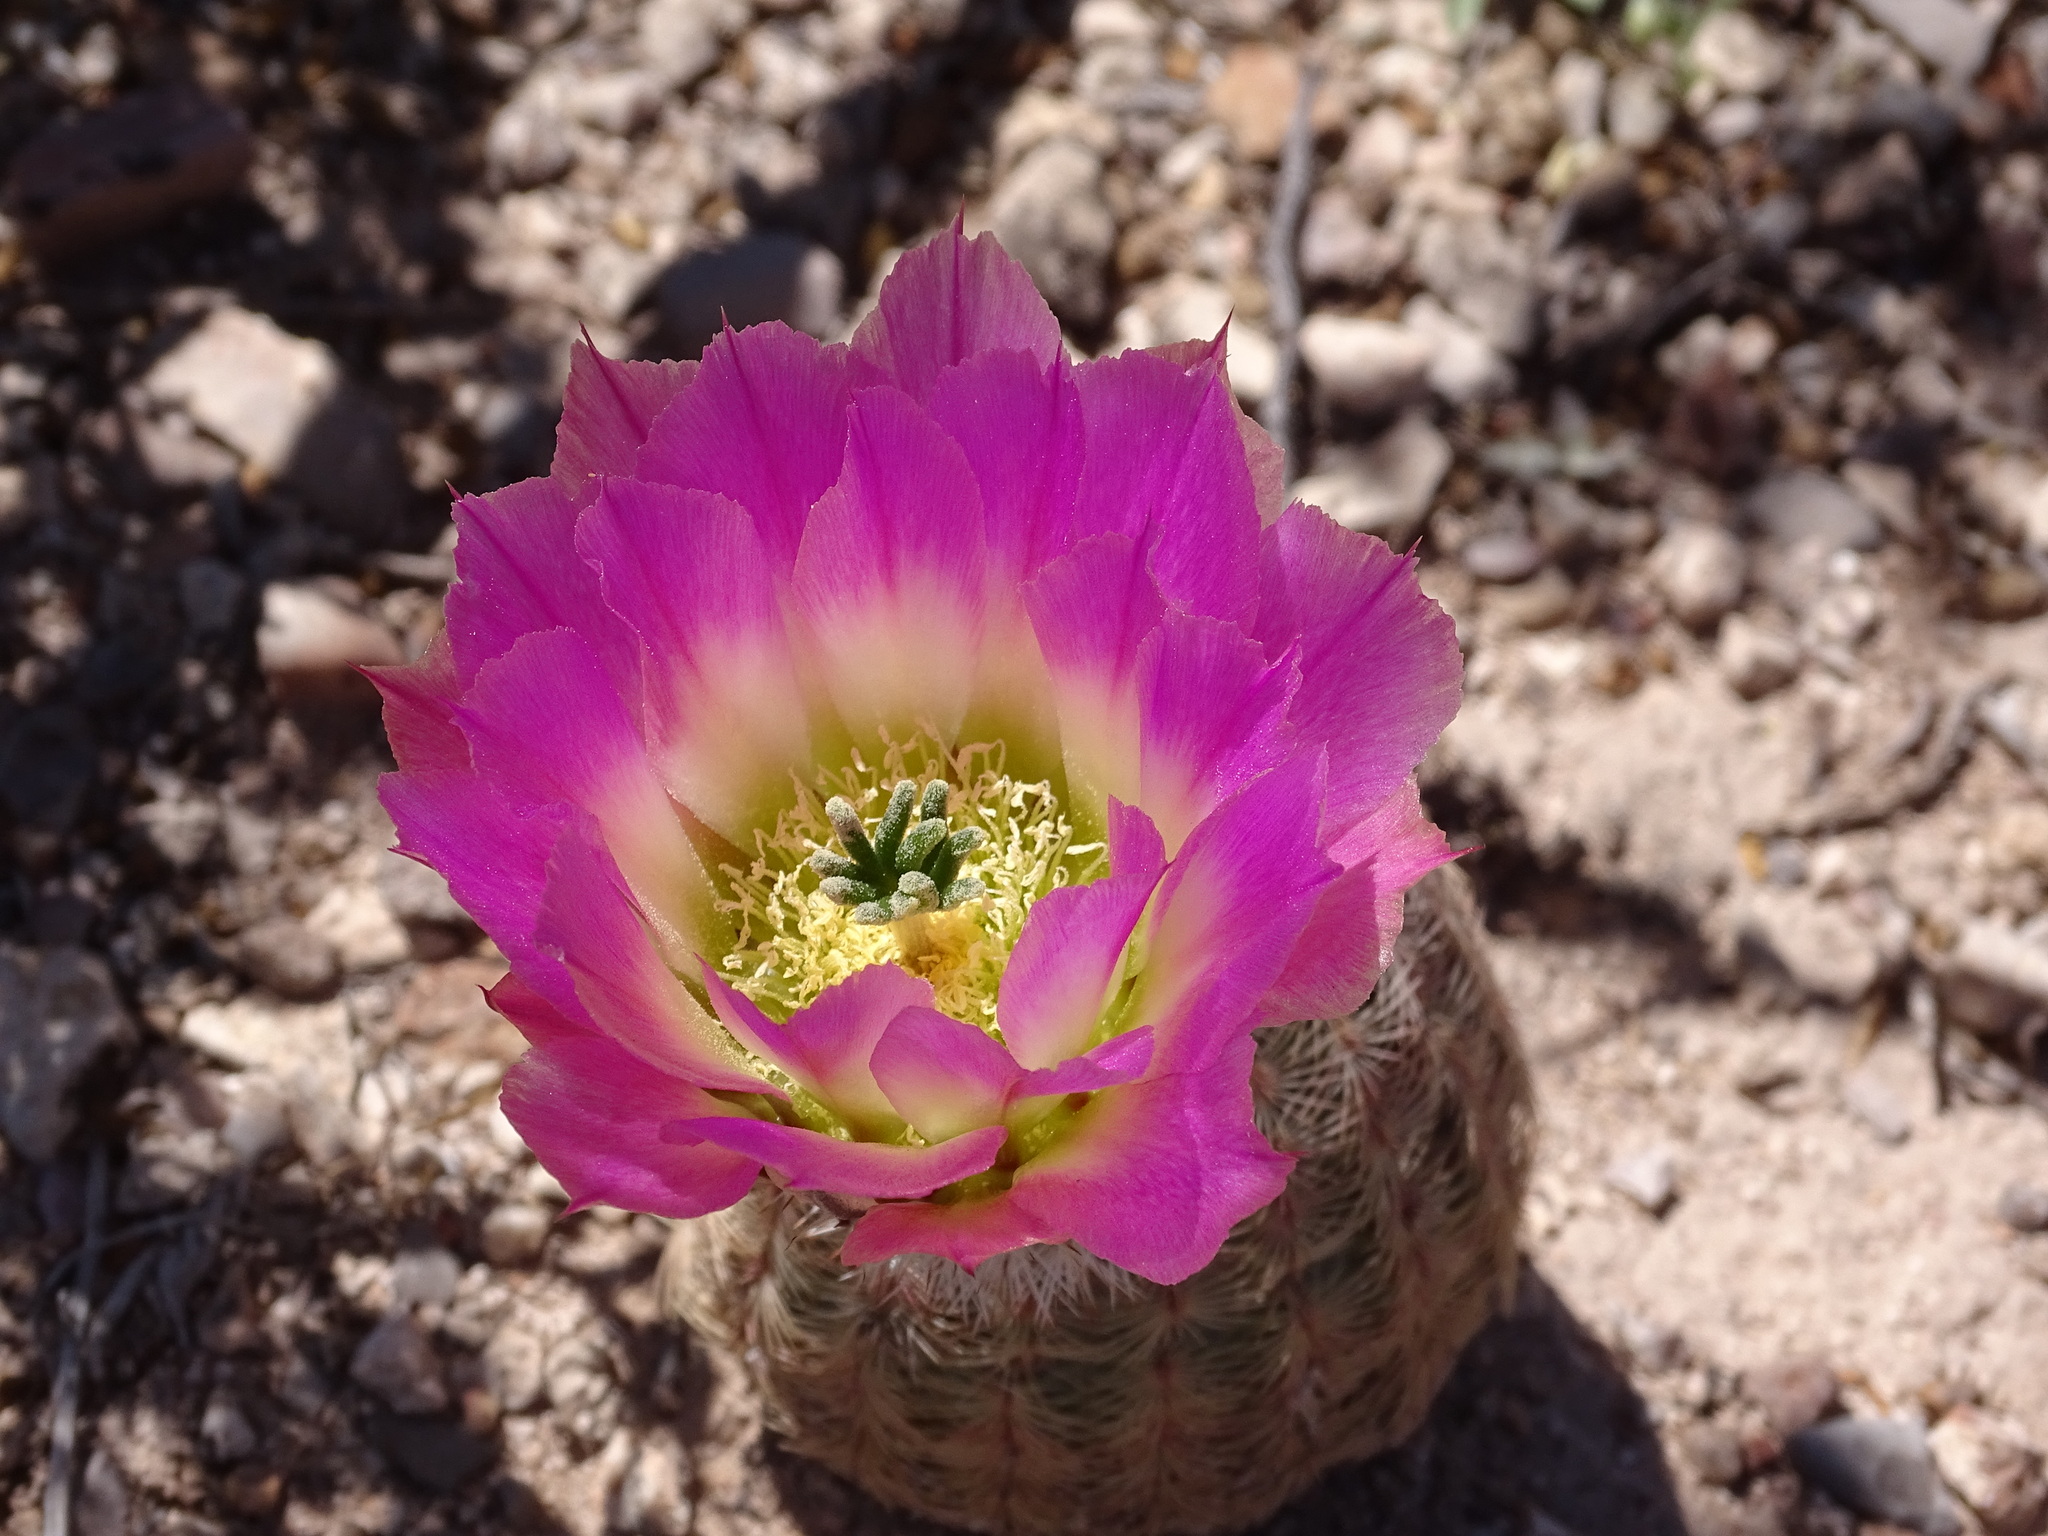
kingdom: Plantae
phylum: Tracheophyta
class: Magnoliopsida
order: Caryophyllales
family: Cactaceae
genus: Echinocereus
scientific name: Echinocereus pectinatus
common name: Rainbow cactus
